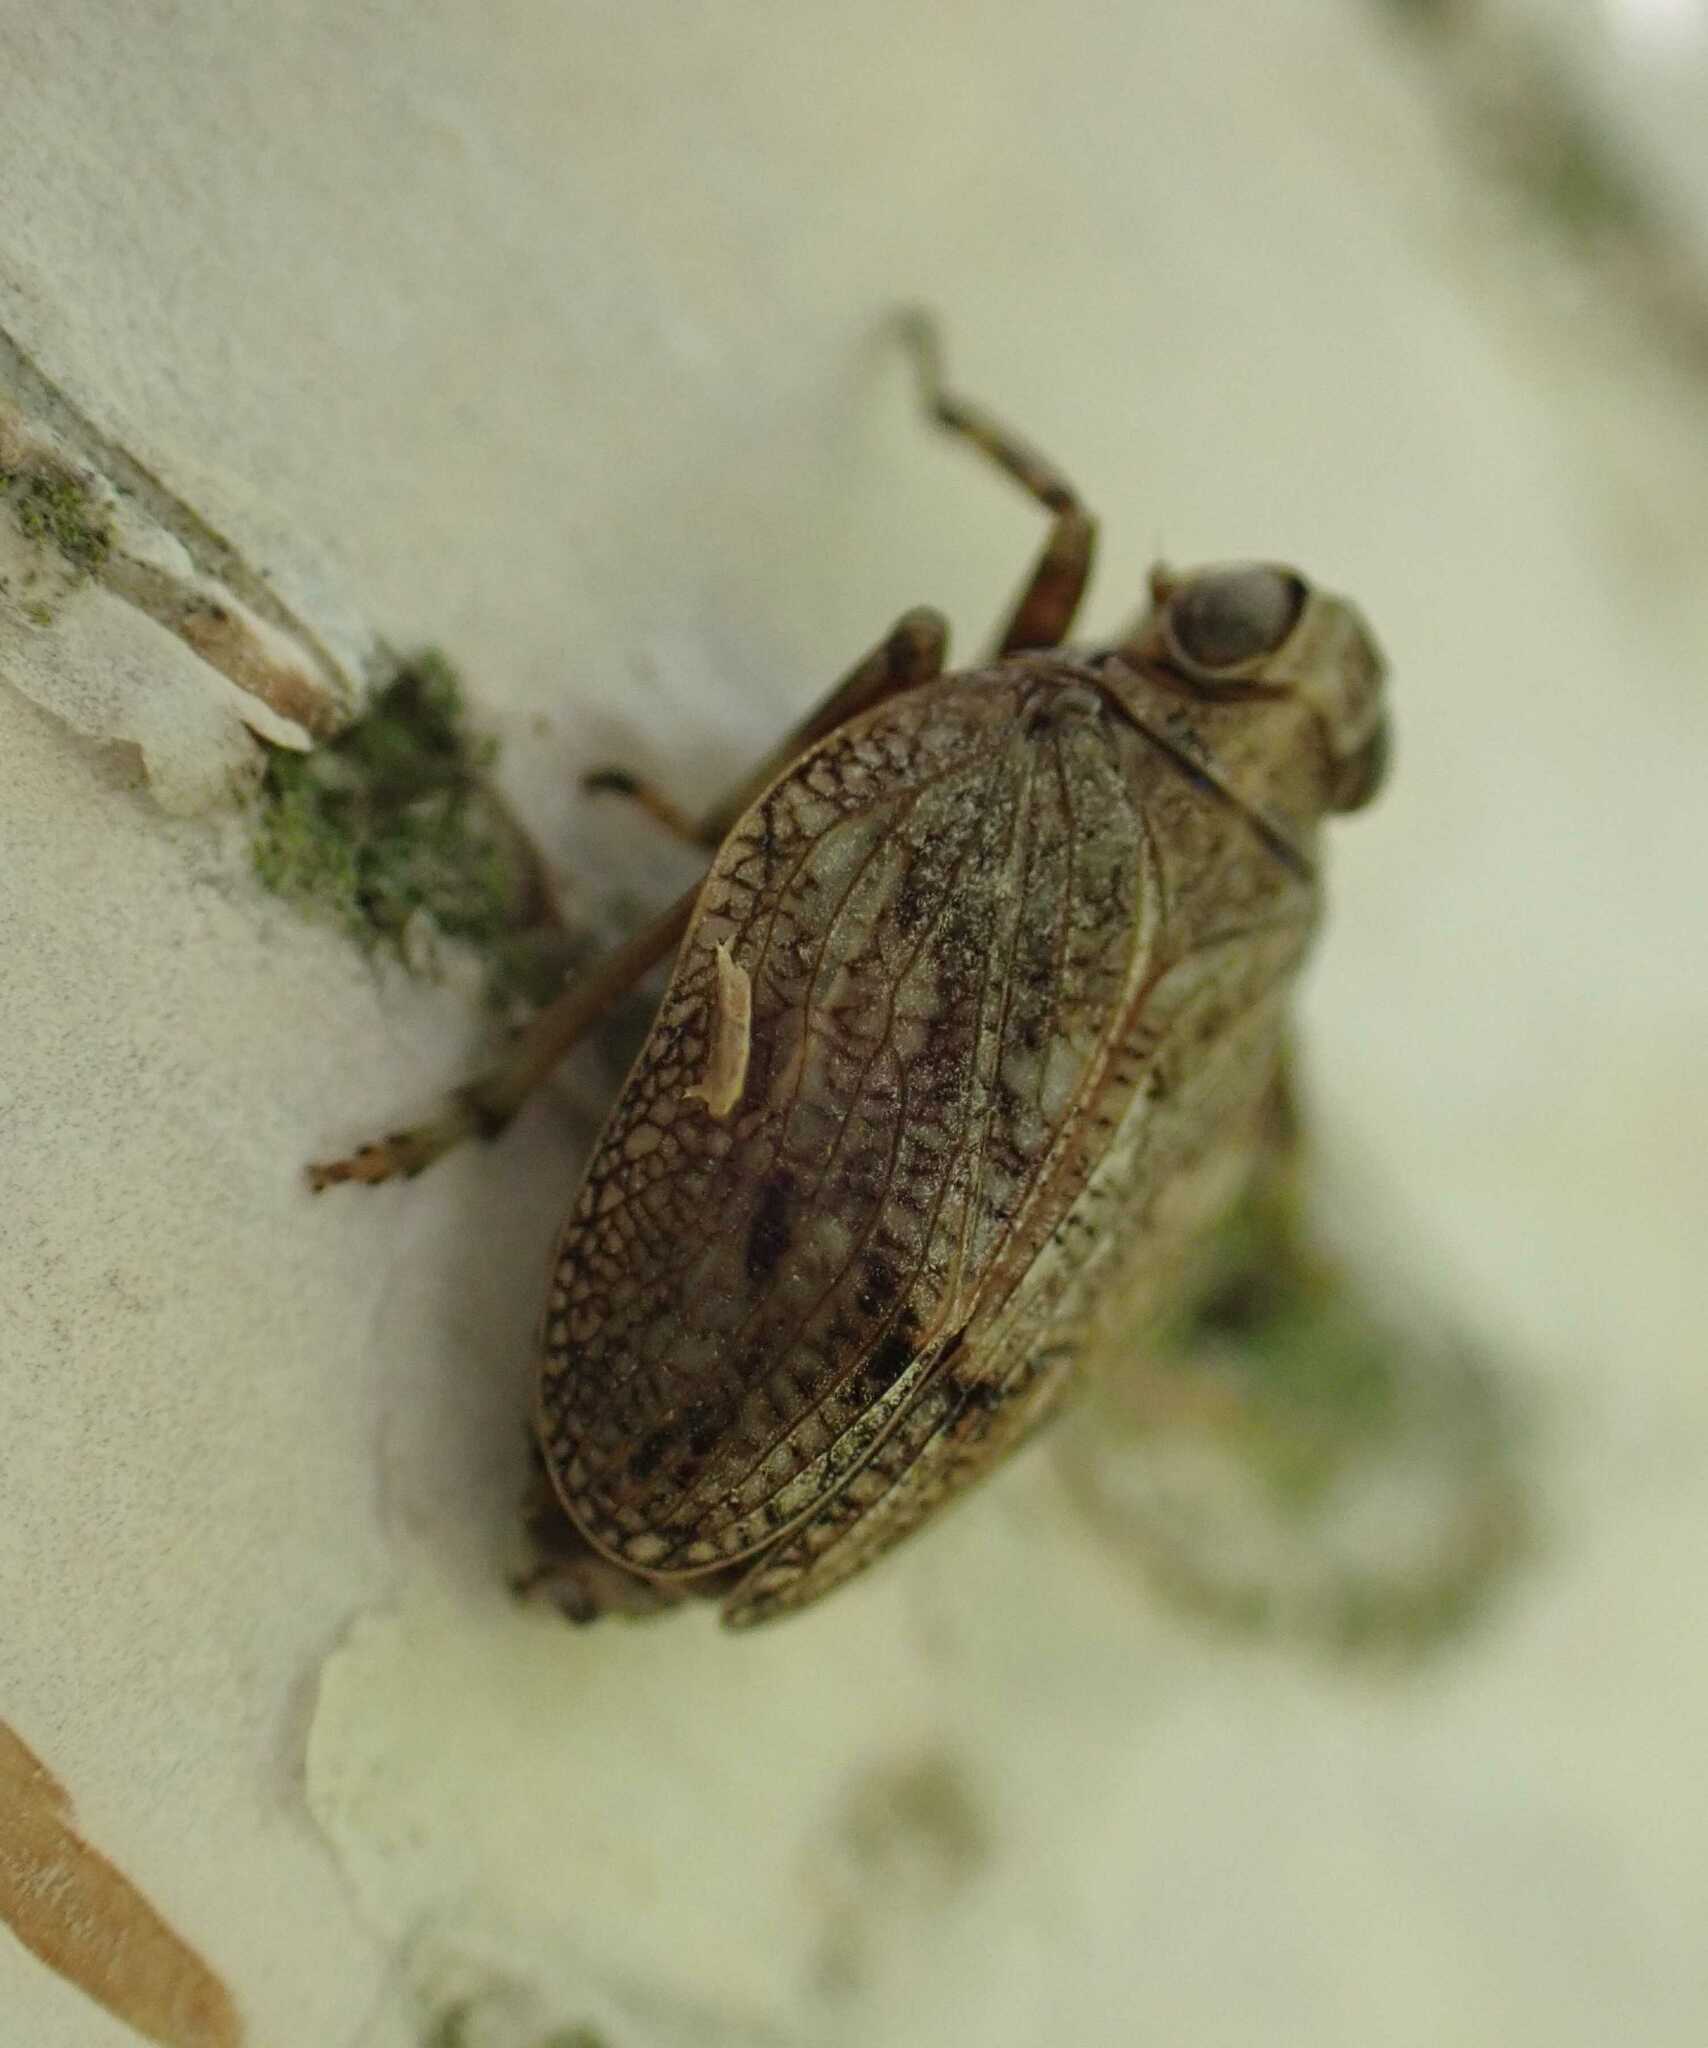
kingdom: Animalia
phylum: Arthropoda
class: Insecta
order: Hemiptera
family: Issidae
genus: Issus
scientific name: Issus coleoptratus
